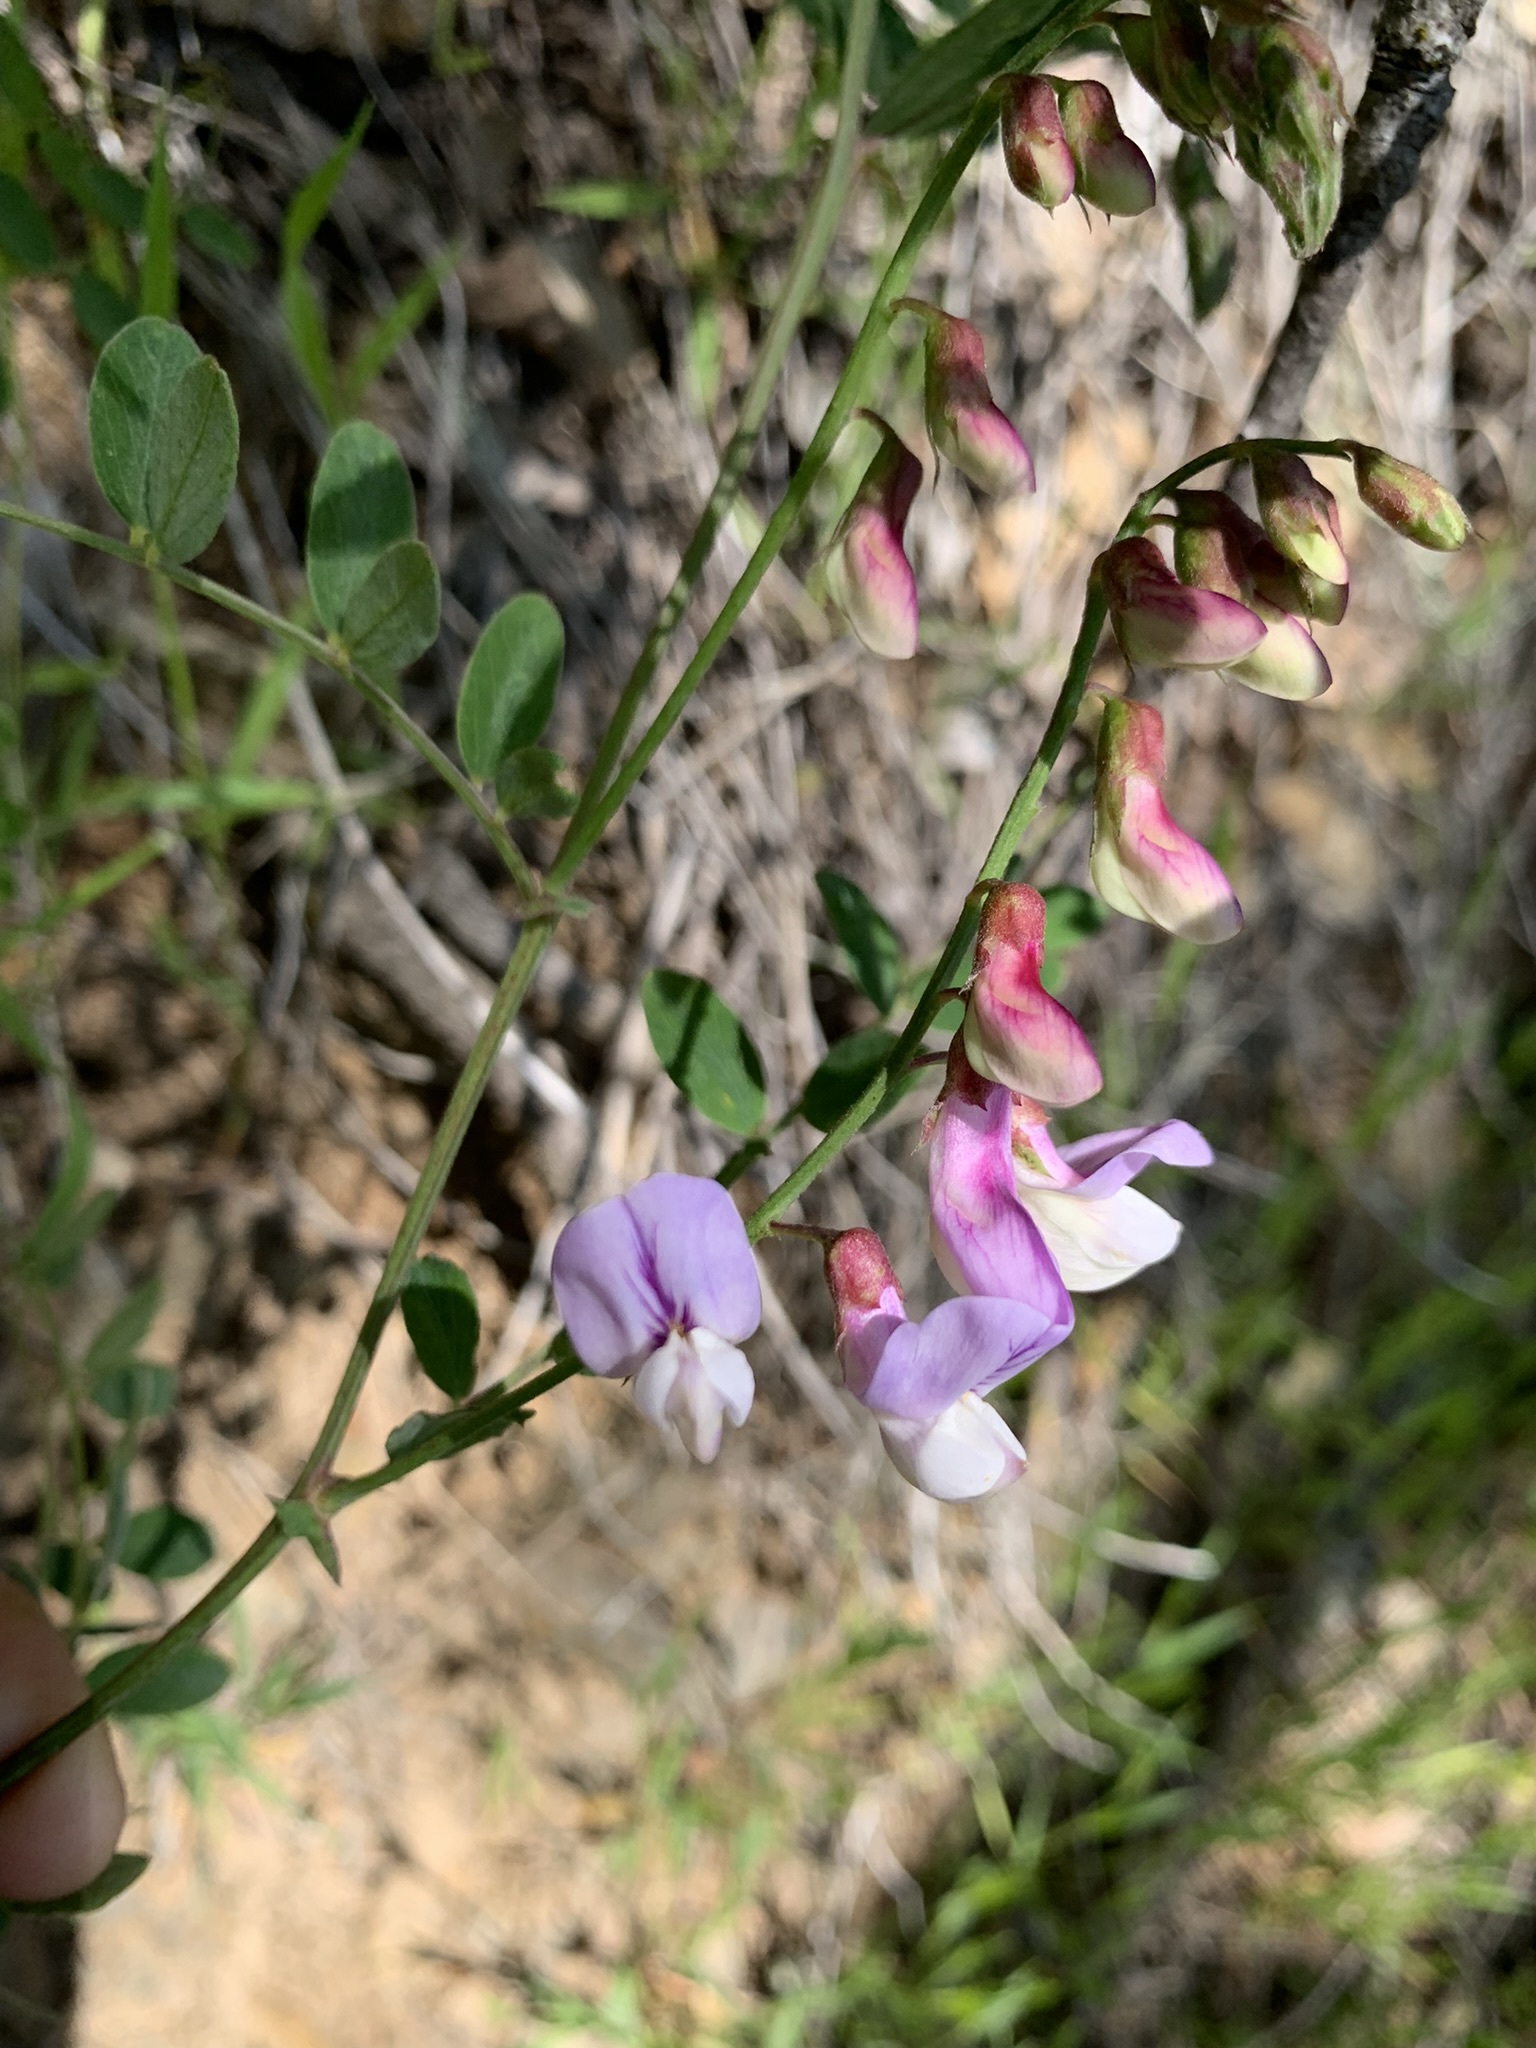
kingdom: Plantae
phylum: Tracheophyta
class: Magnoliopsida
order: Fabales
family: Fabaceae
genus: Lathyrus
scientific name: Lathyrus vestitus
